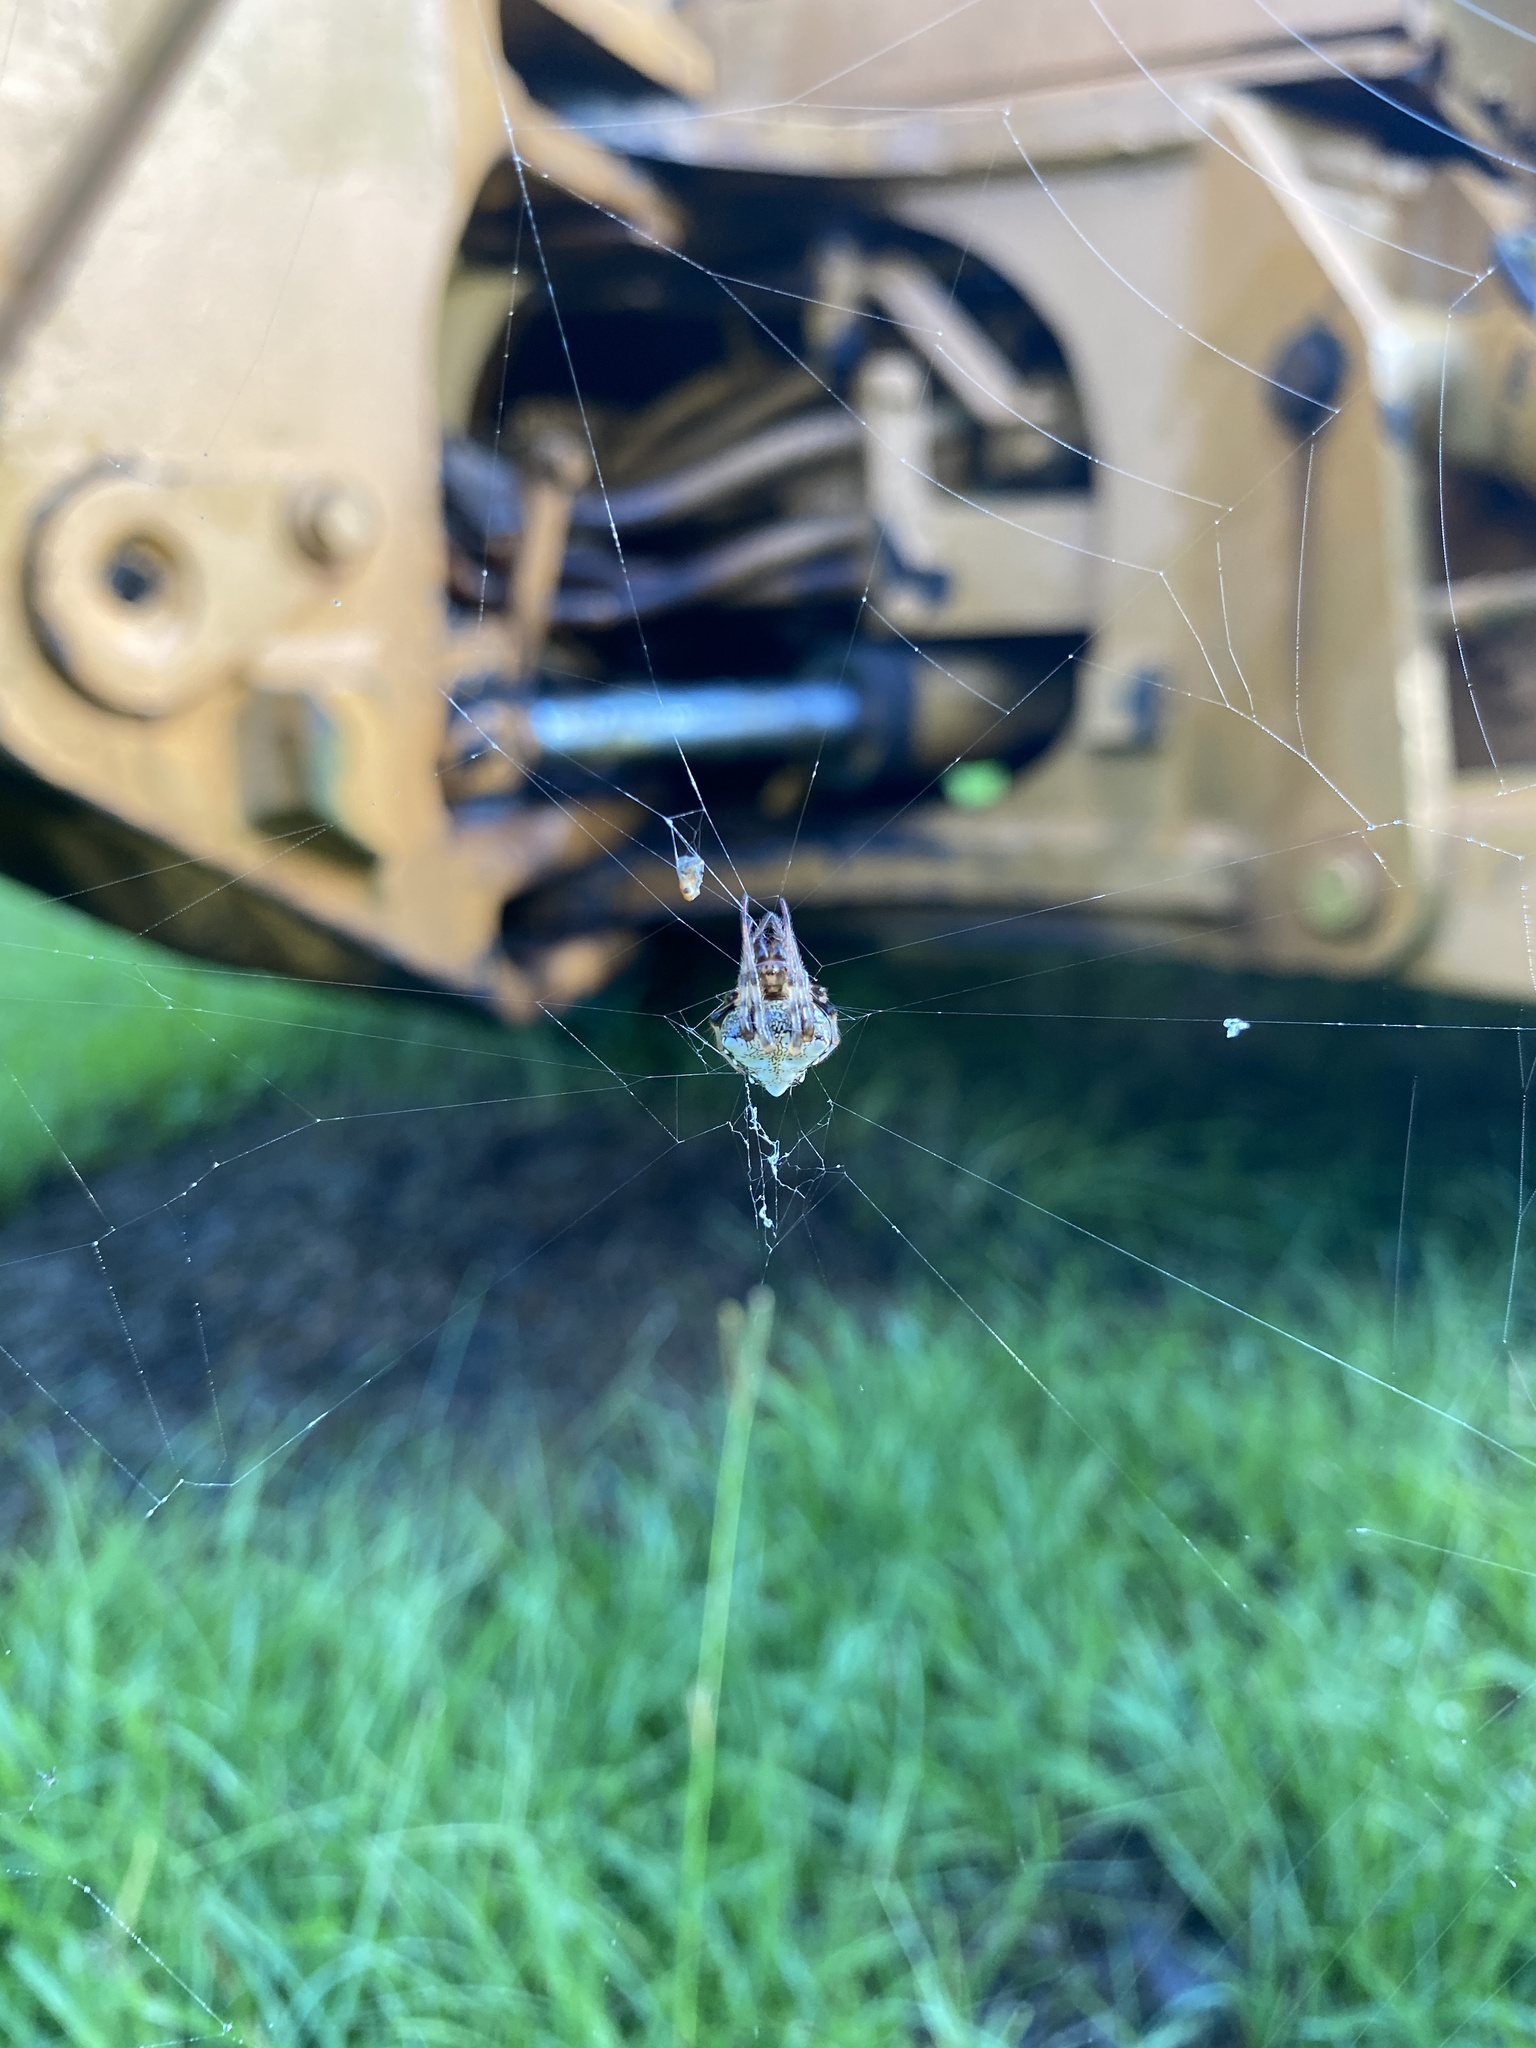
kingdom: Animalia
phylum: Arthropoda
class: Arachnida
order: Araneae
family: Araneidae
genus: Verrucosa
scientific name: Verrucosa arenata
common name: Orb weavers
